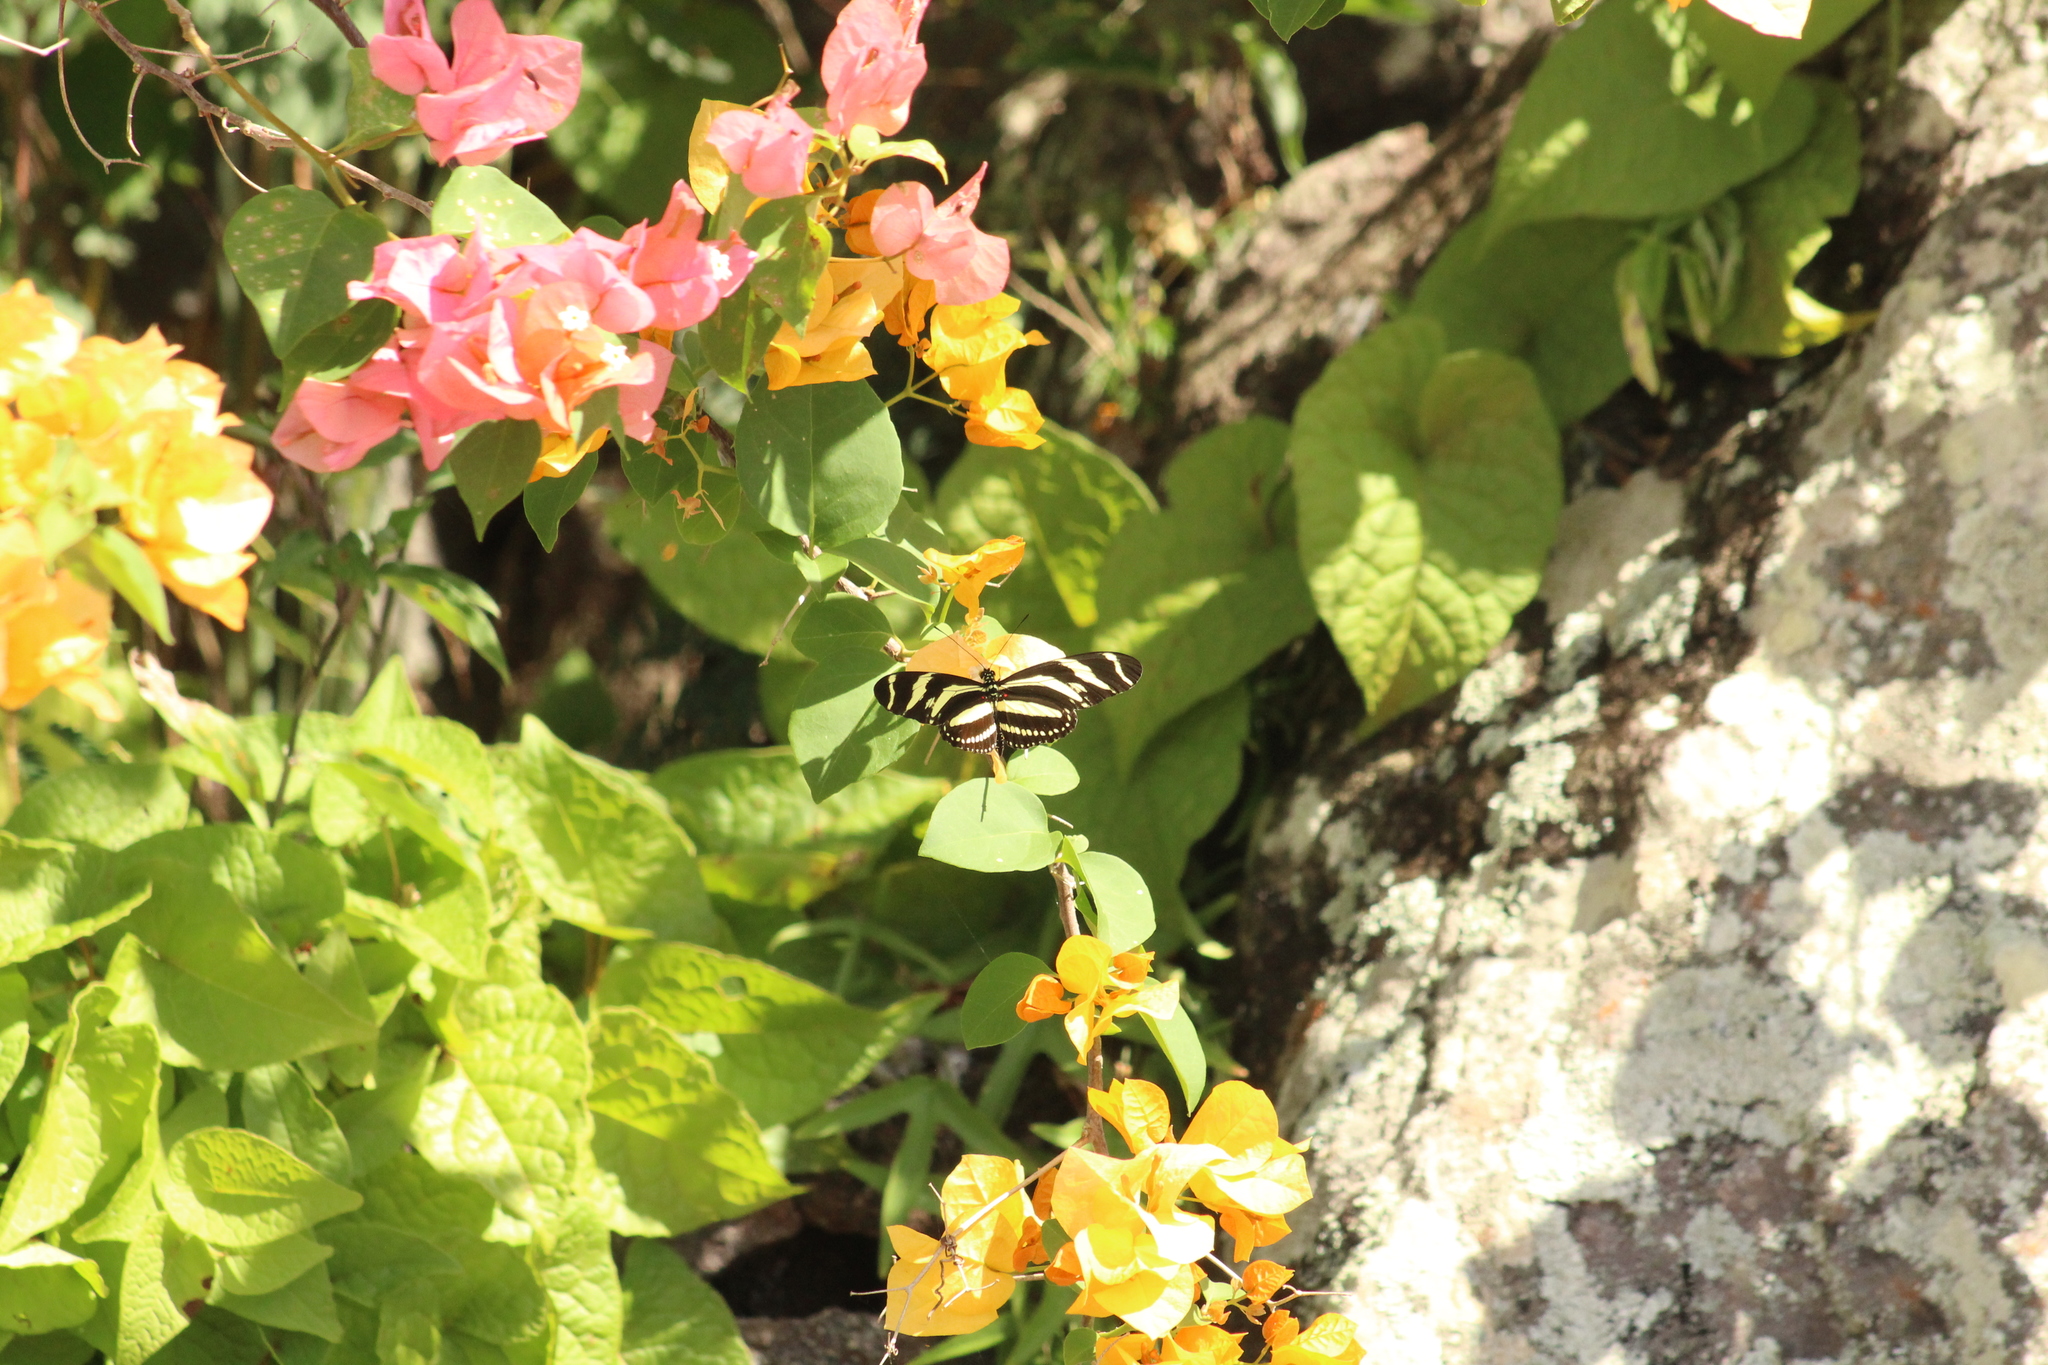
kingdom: Animalia
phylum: Arthropoda
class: Insecta
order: Lepidoptera
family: Nymphalidae
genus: Heliconius
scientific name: Heliconius charithonia
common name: Zebra long wing
